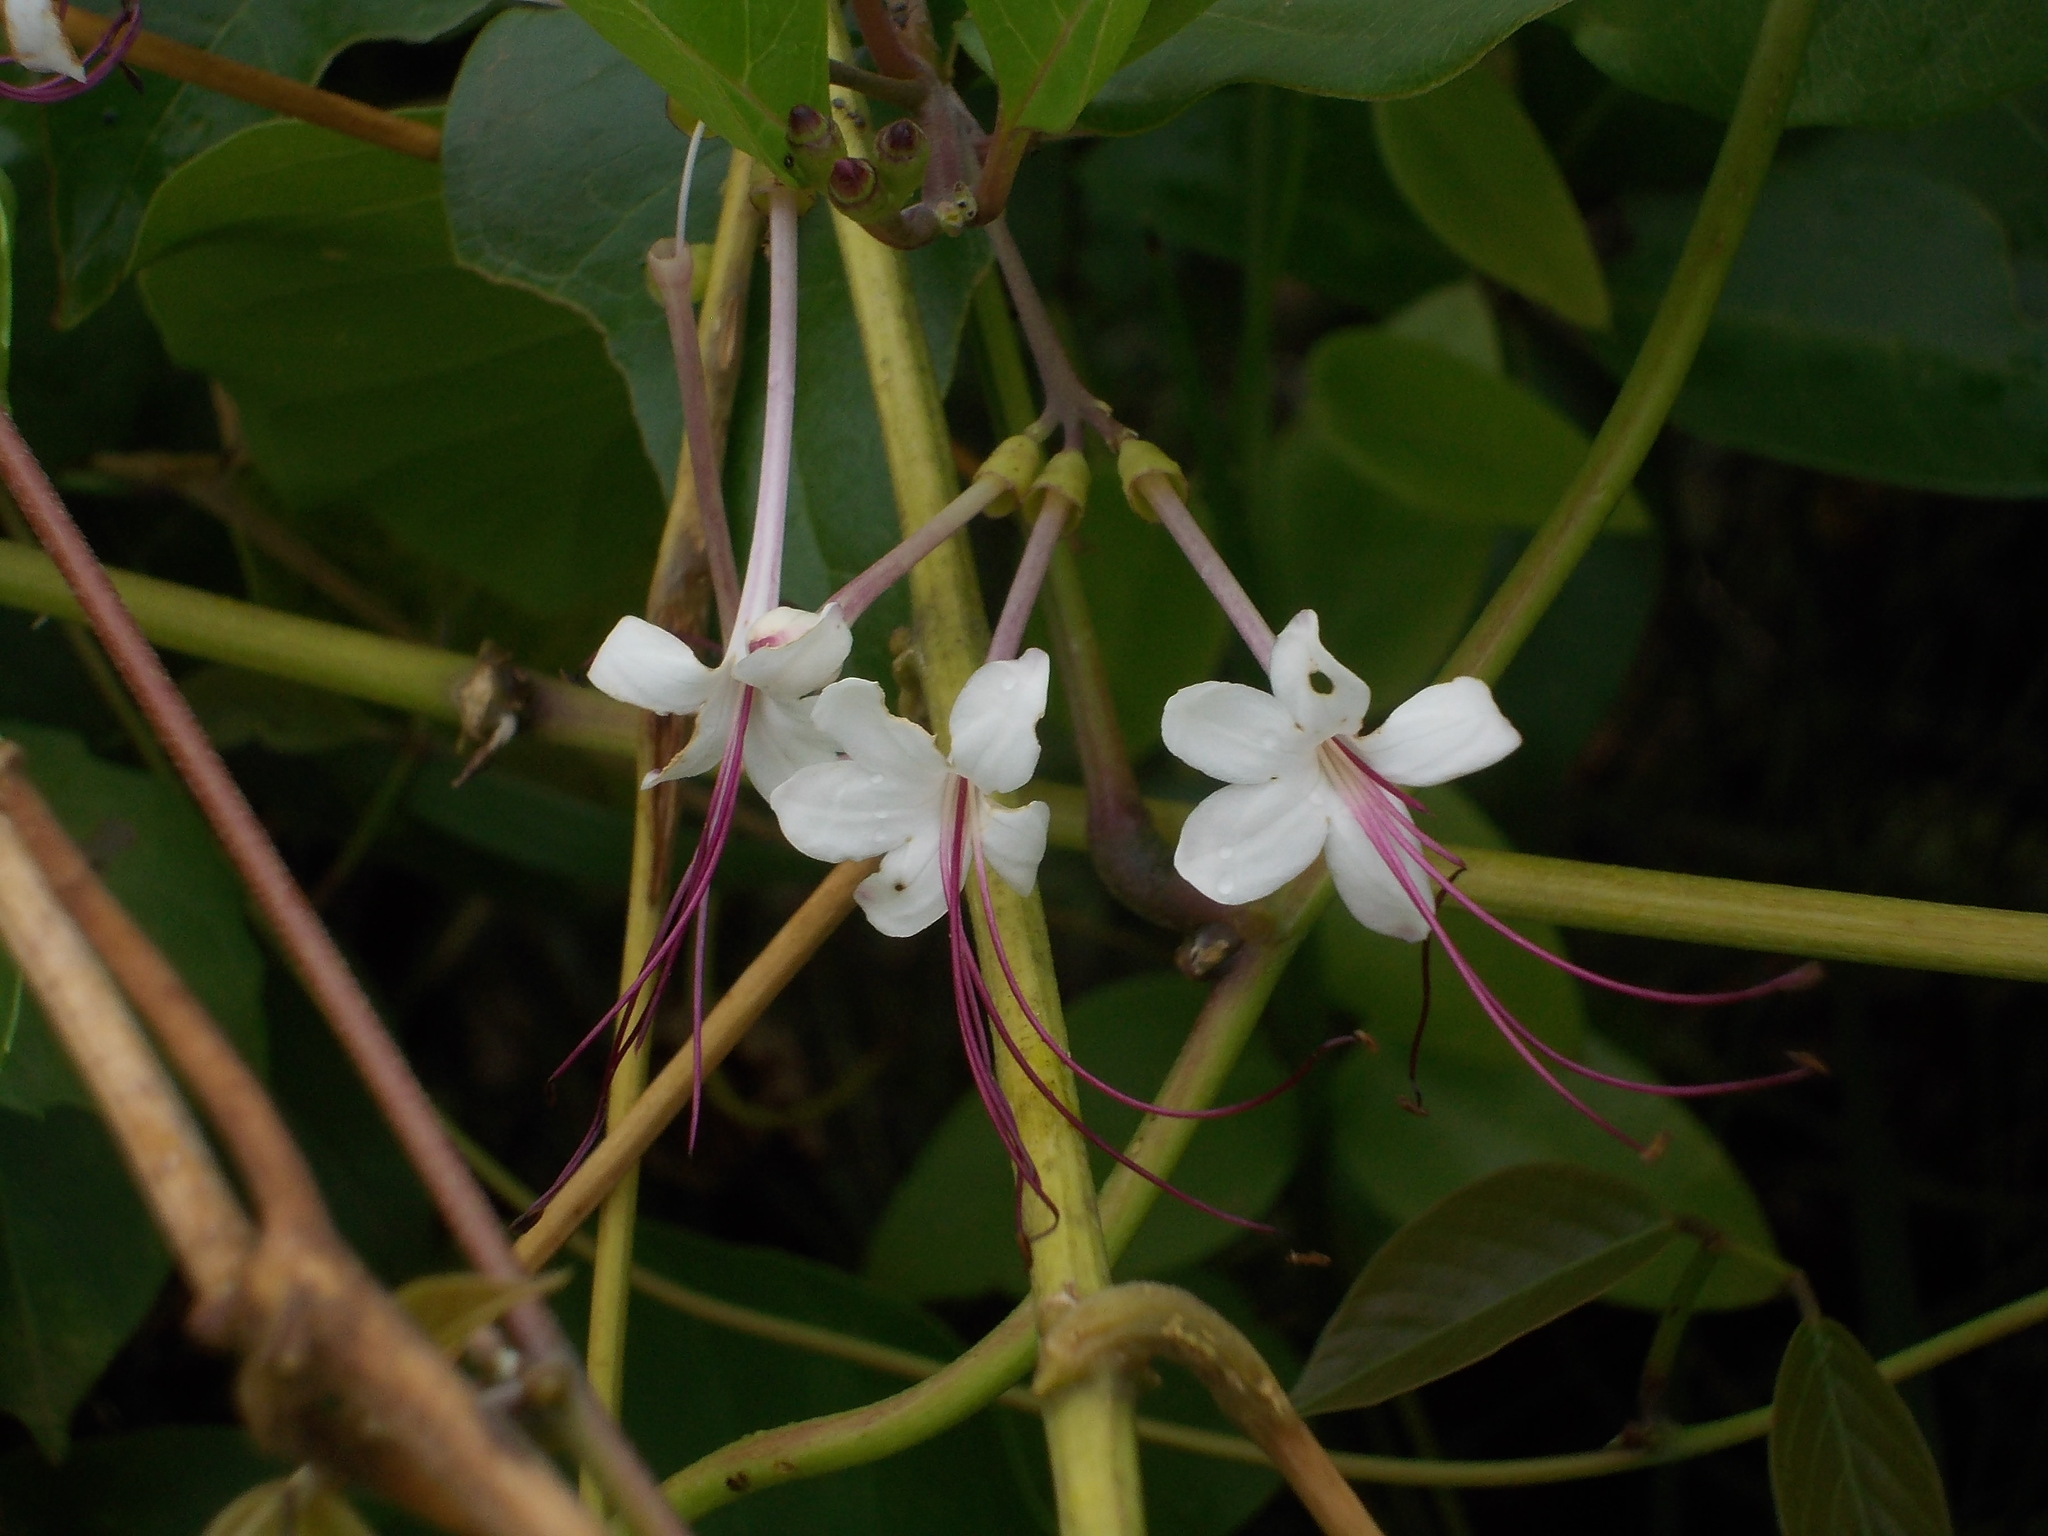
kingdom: Plantae
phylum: Tracheophyta
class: Magnoliopsida
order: Lamiales
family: Lamiaceae
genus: Volkameria
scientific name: Volkameria inermis
